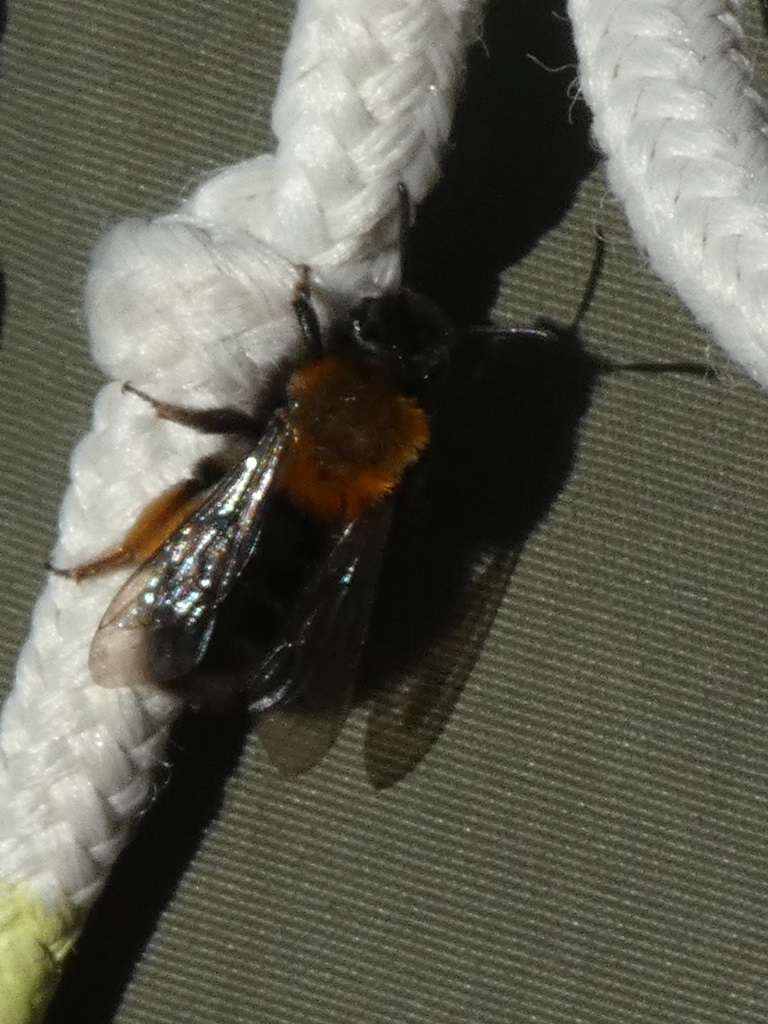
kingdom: Animalia
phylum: Arthropoda
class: Insecta
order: Hymenoptera
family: Andrenidae
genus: Andrena
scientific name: Andrena clarkella
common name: Clarke's mining bee
